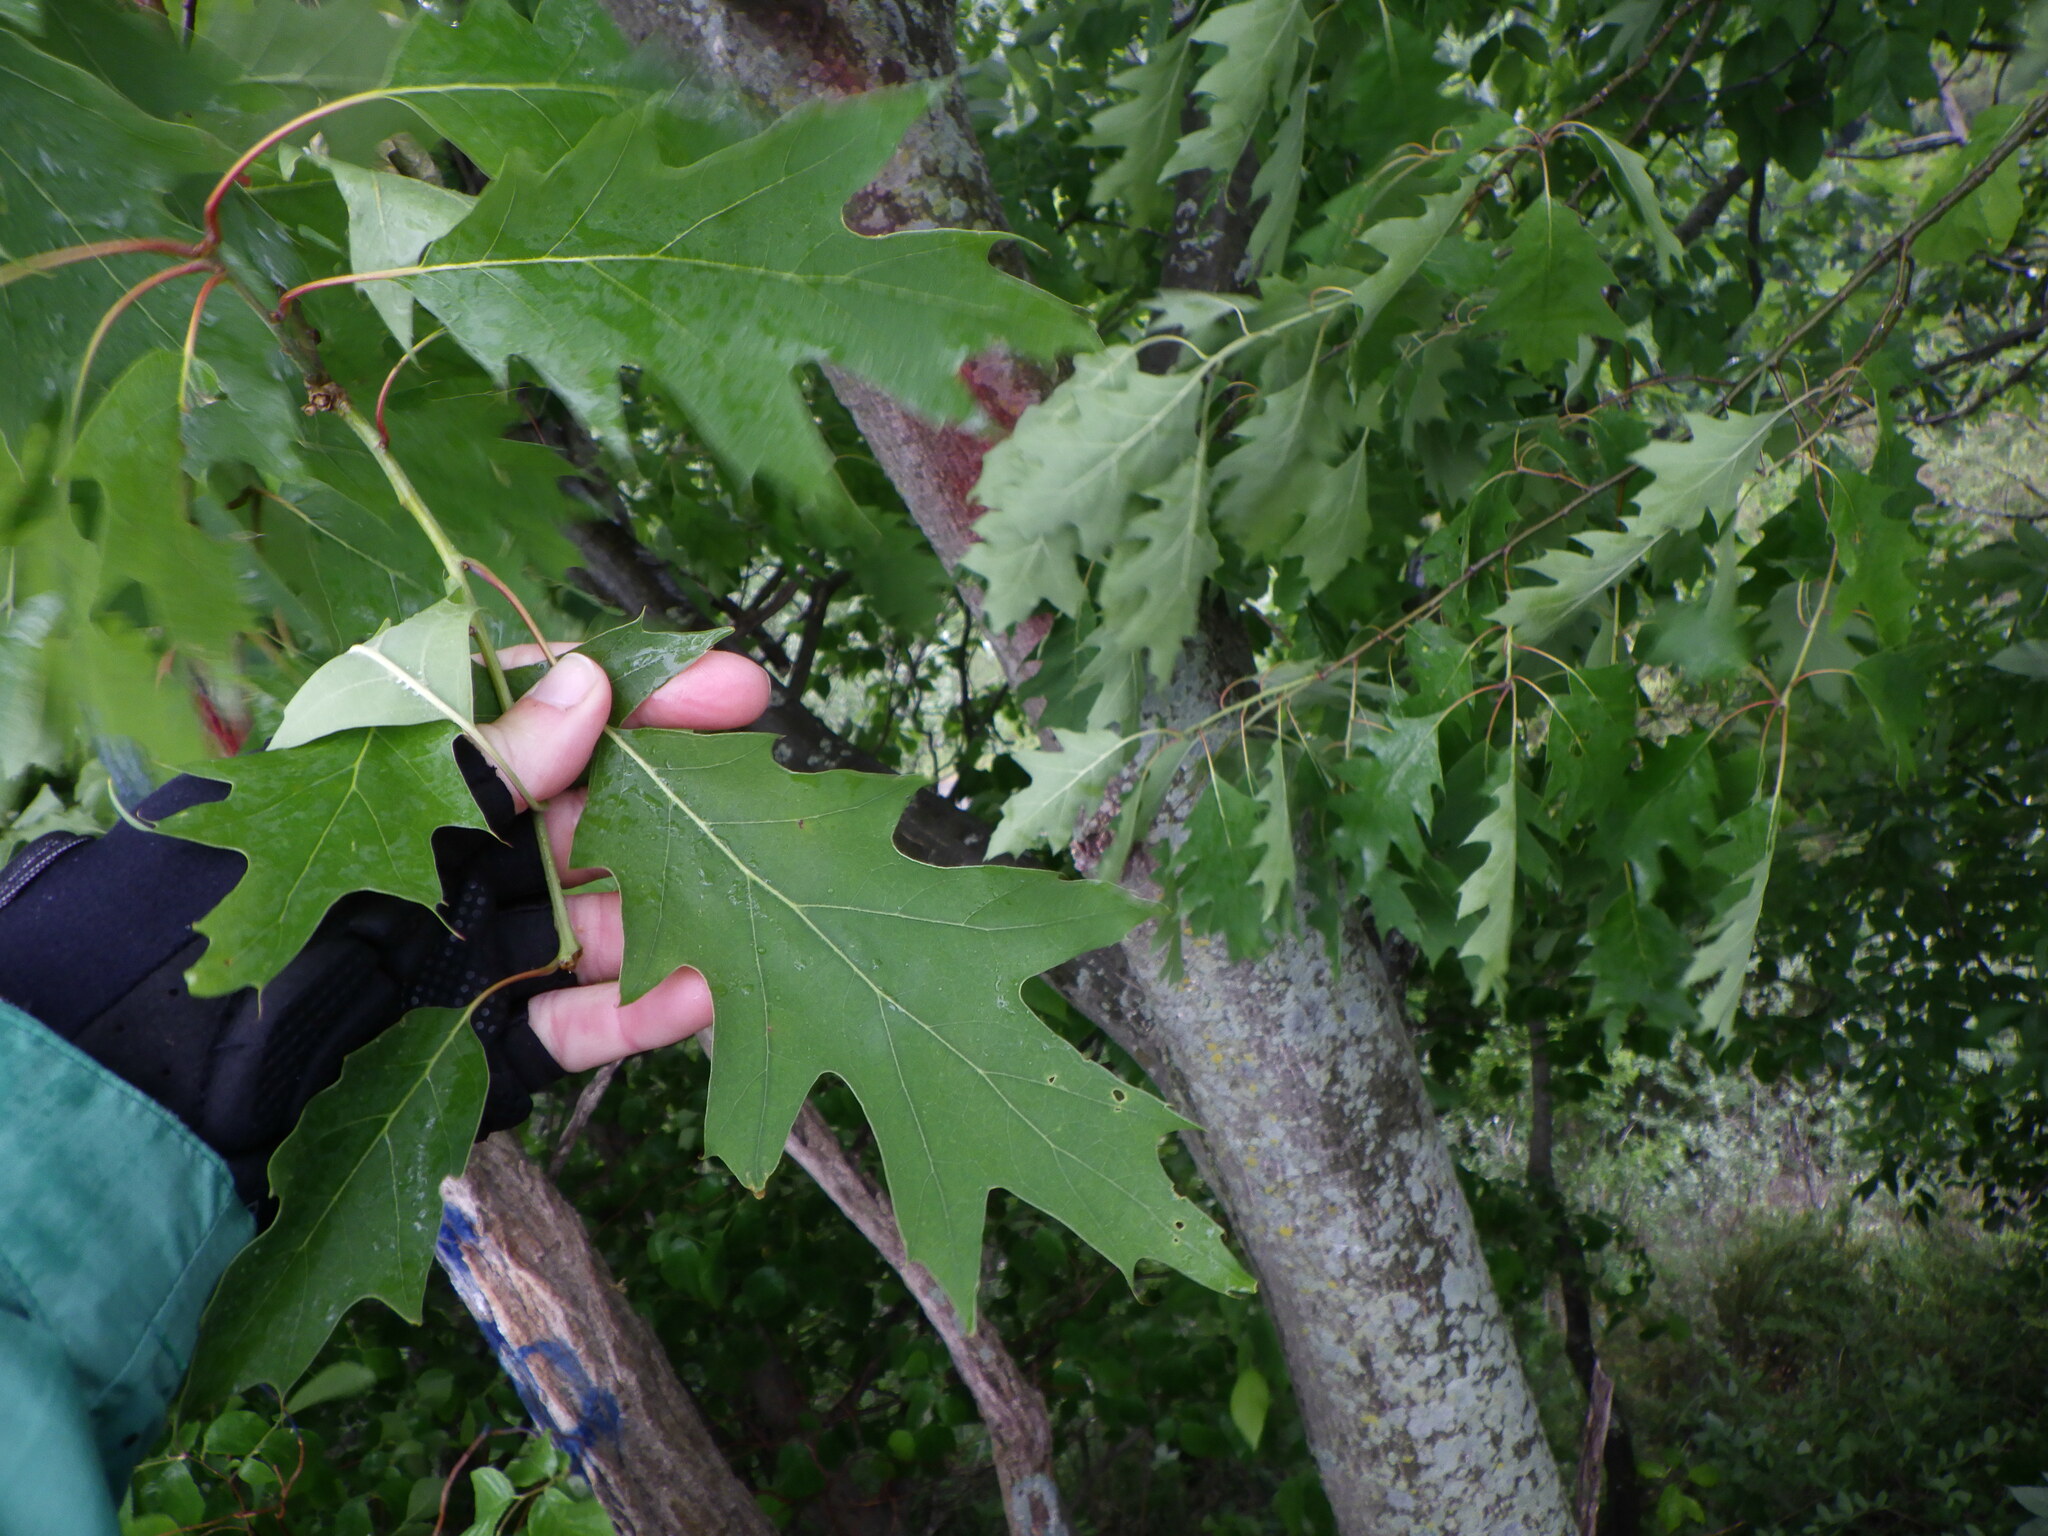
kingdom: Plantae
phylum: Tracheophyta
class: Magnoliopsida
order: Fagales
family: Fagaceae
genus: Quercus
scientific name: Quercus rubra
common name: Red oak
